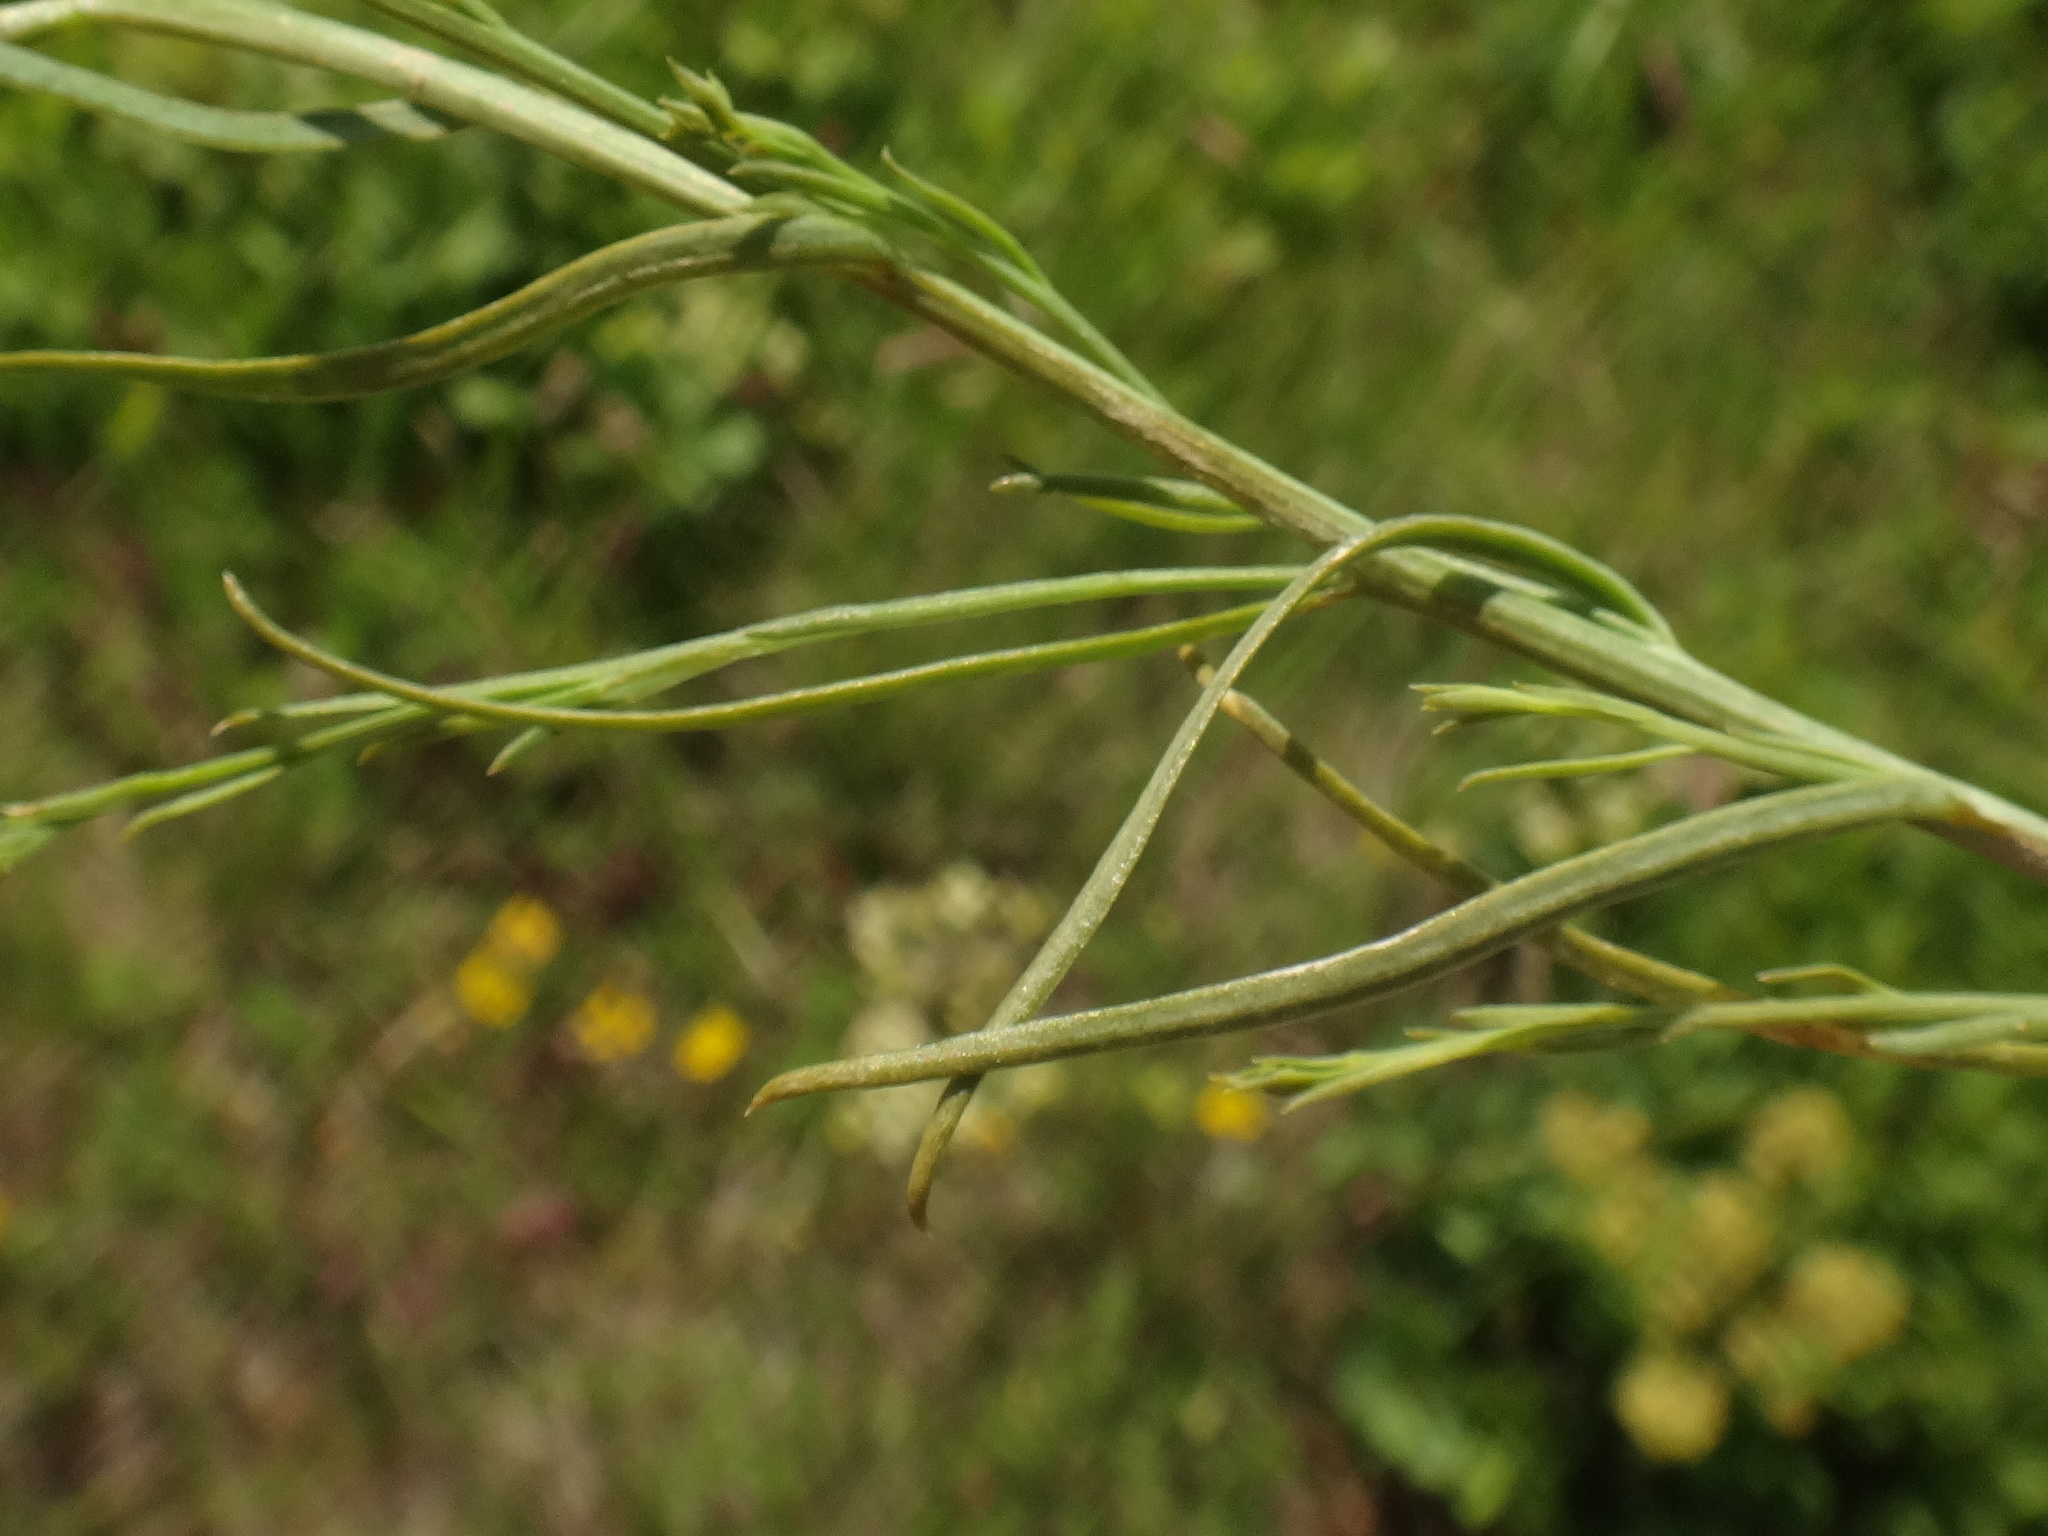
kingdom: Plantae
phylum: Tracheophyta
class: Magnoliopsida
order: Santalales
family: Thesiaceae
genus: Thesium
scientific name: Thesium divaricatum
